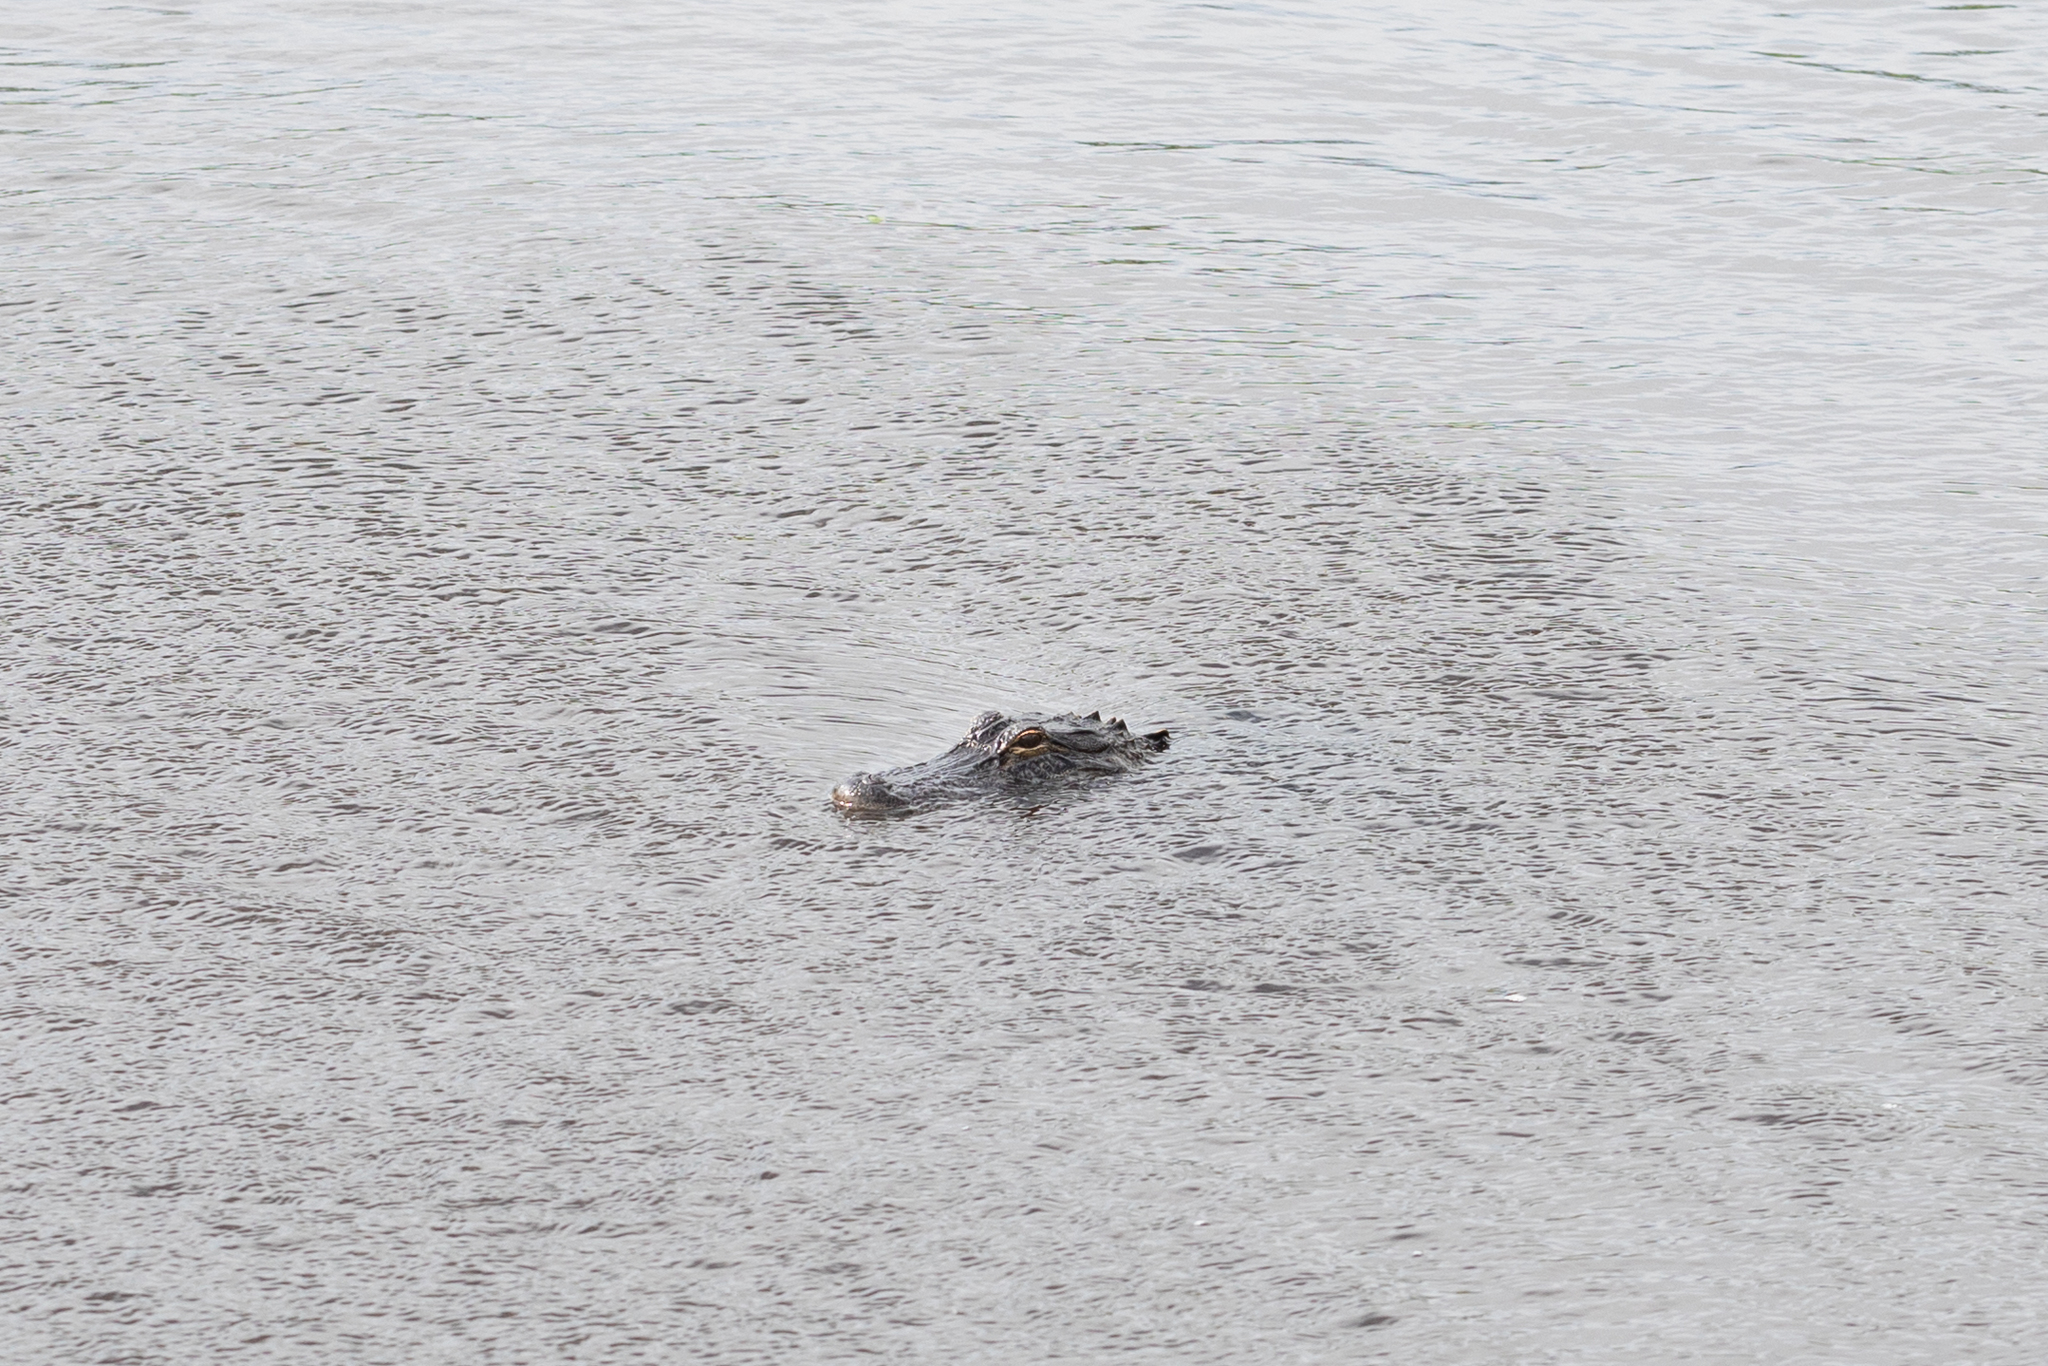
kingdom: Animalia
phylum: Chordata
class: Crocodylia
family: Alligatoridae
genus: Alligator
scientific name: Alligator mississippiensis
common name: American alligator
